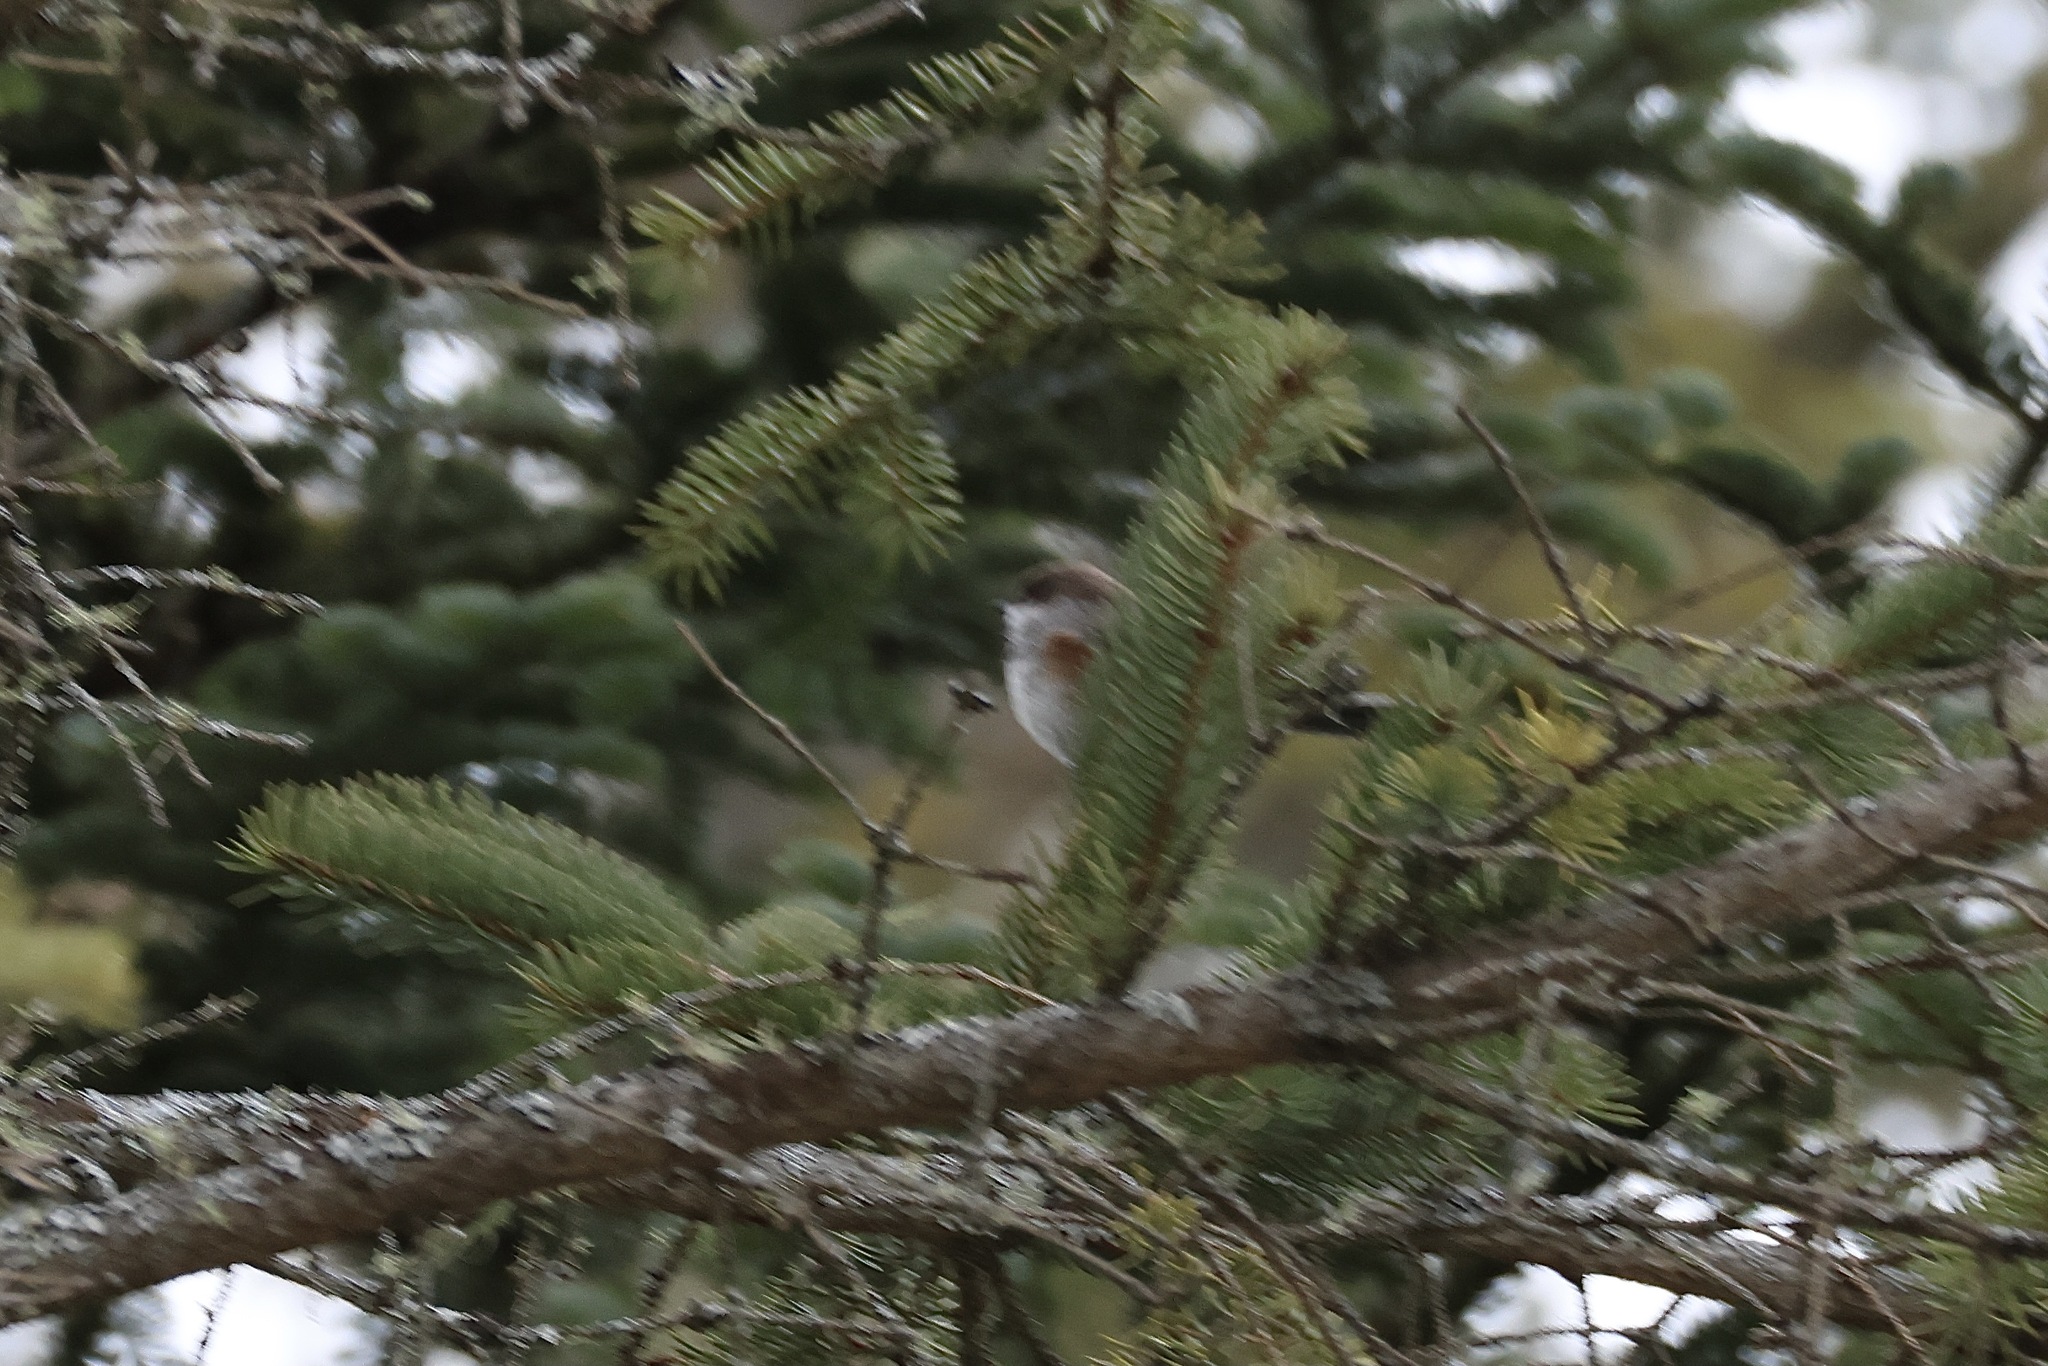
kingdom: Animalia
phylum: Chordata
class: Aves
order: Passeriformes
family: Paridae
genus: Poecile
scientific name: Poecile hudsonicus
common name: Boreal chickadee
